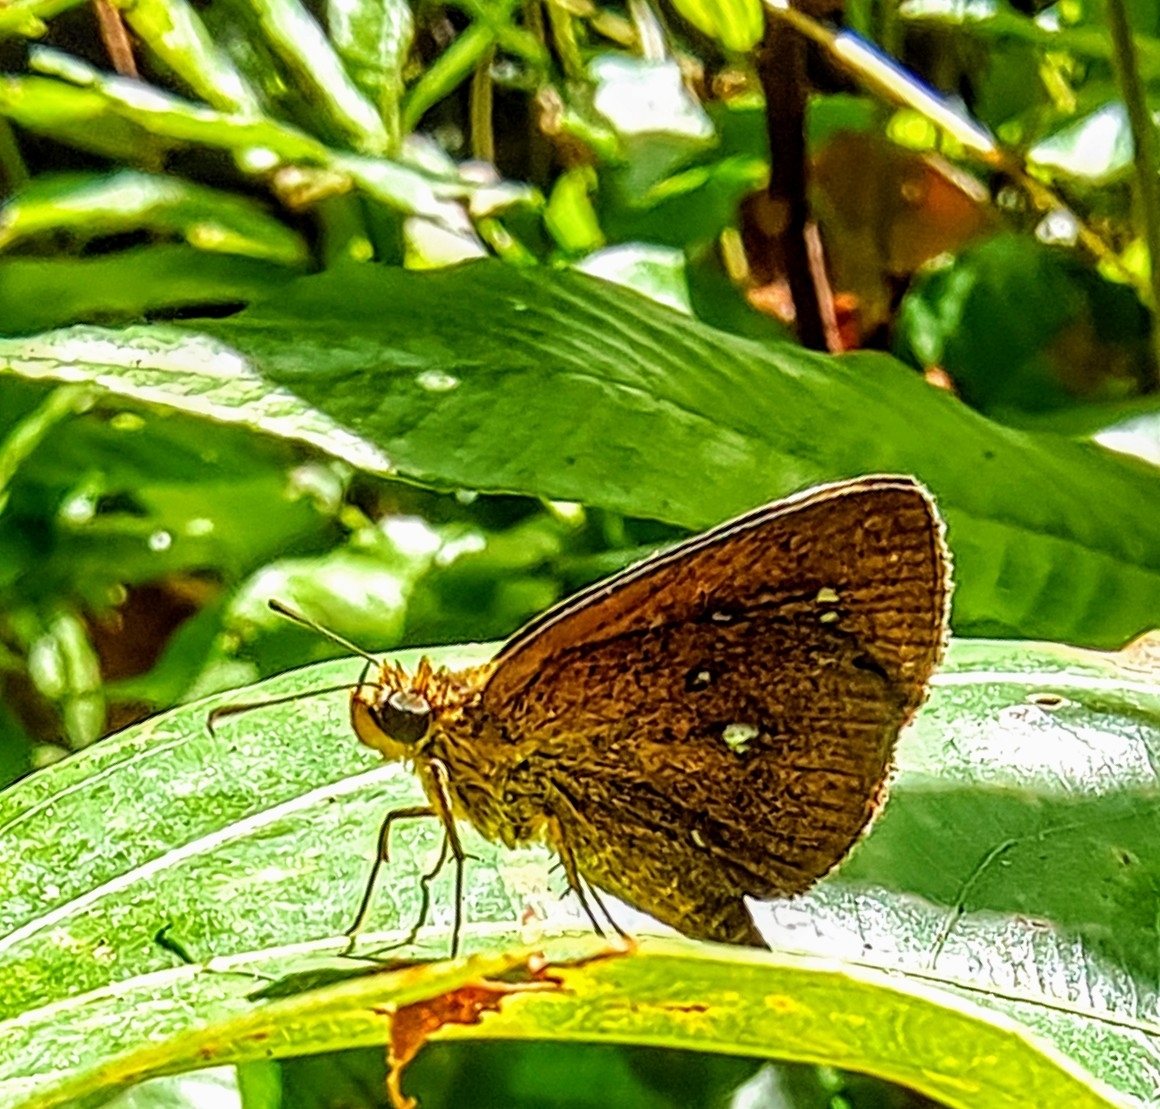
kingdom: Animalia
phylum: Arthropoda
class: Insecta
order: Lepidoptera
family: Hesperiidae
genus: Iambrix
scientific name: Iambrix salsala
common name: Chestnut bob
